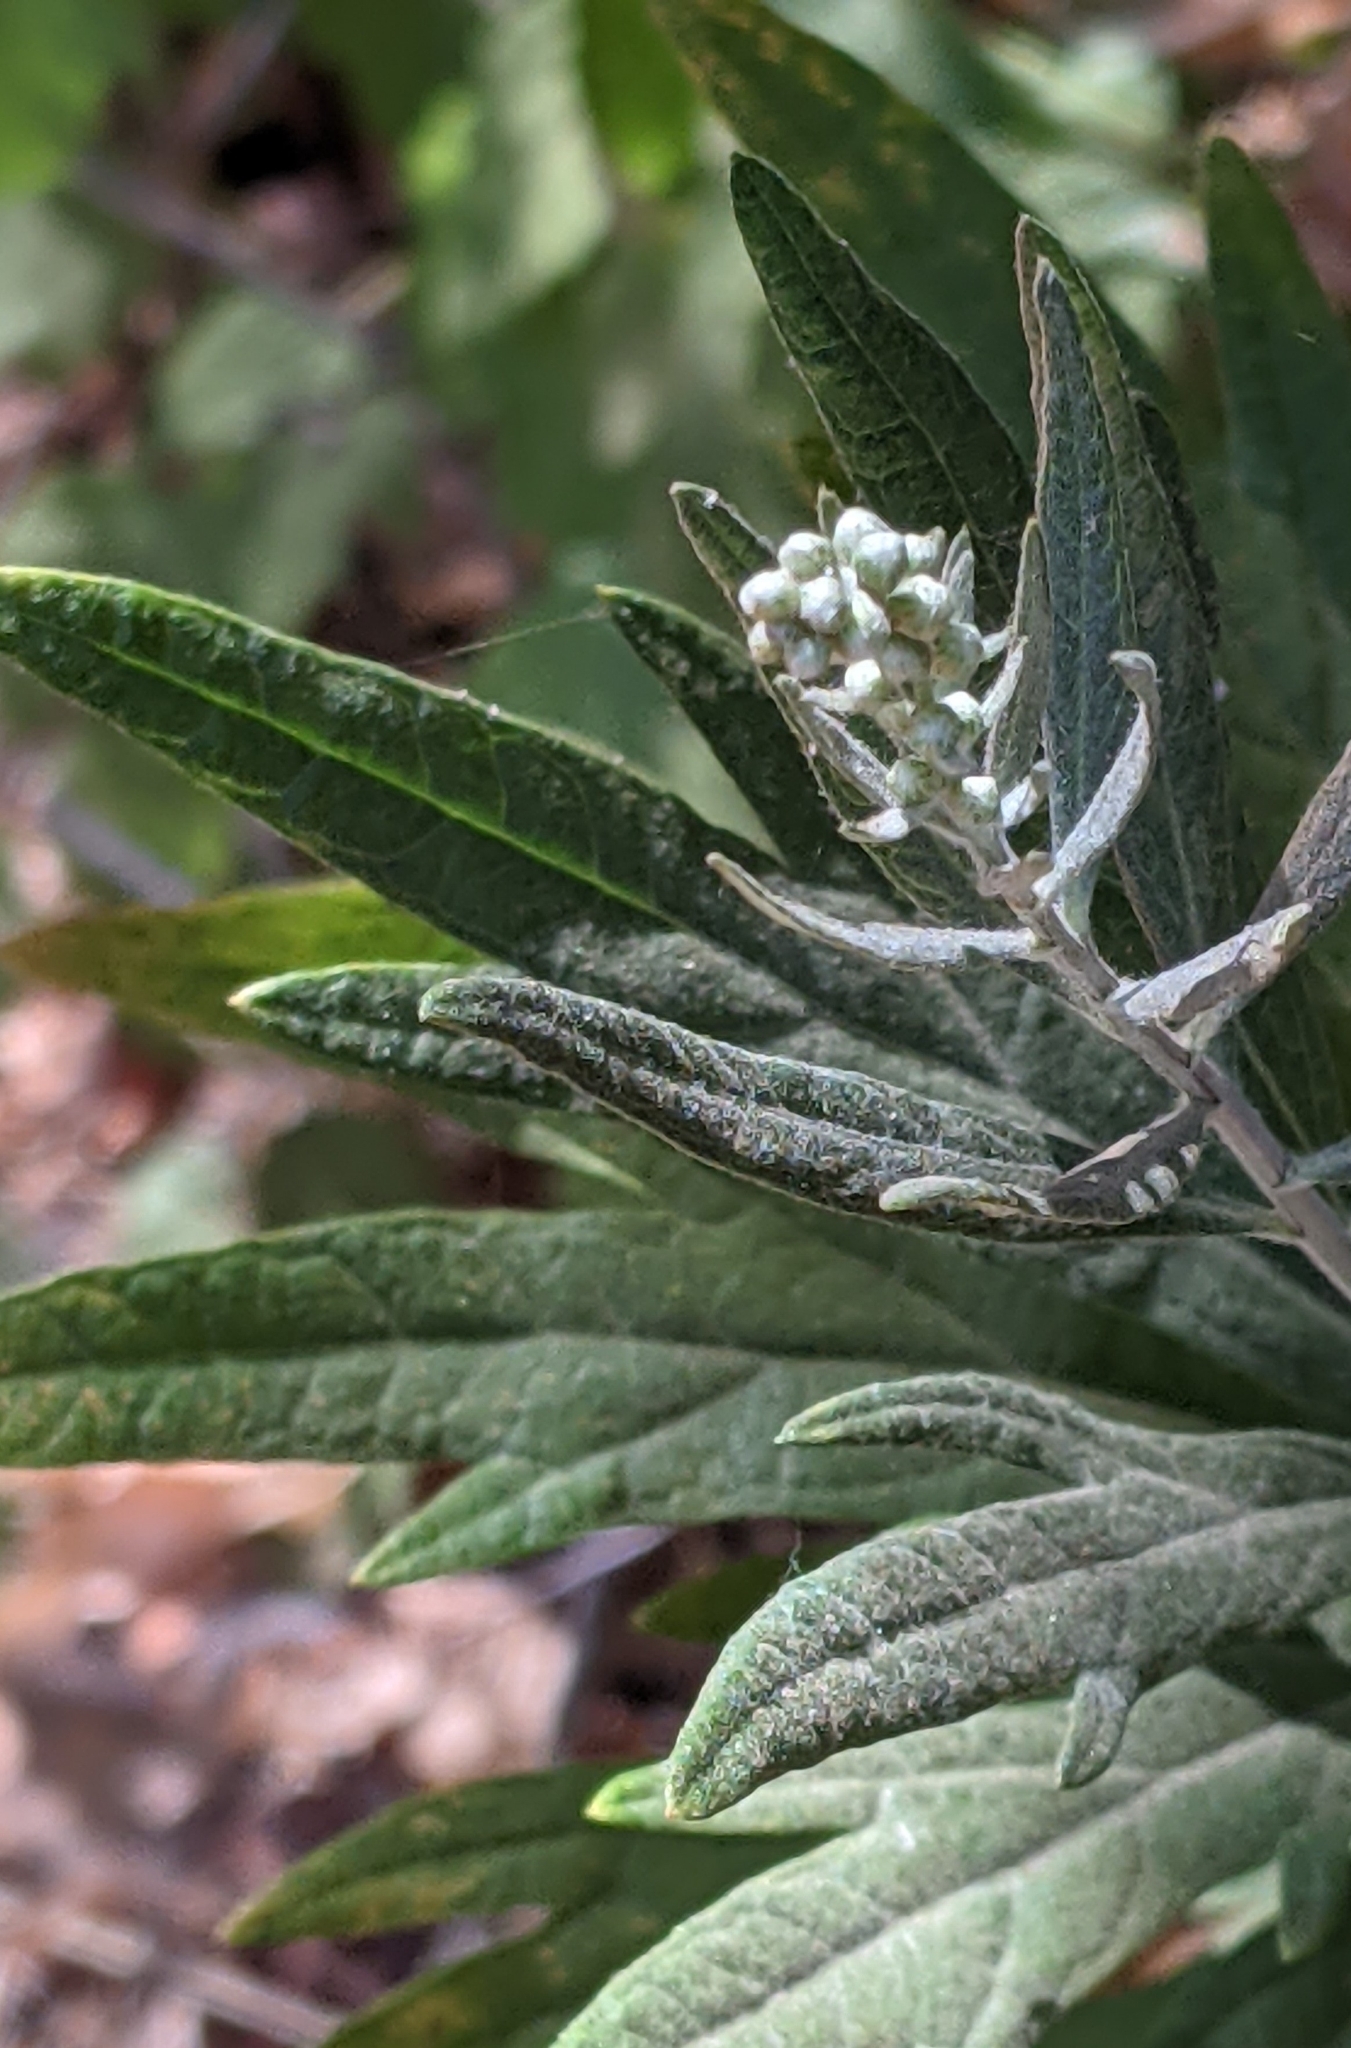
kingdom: Plantae
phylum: Tracheophyta
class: Magnoliopsida
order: Asterales
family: Asteraceae
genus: Artemisia
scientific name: Artemisia douglasiana
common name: Northwest mugwort
